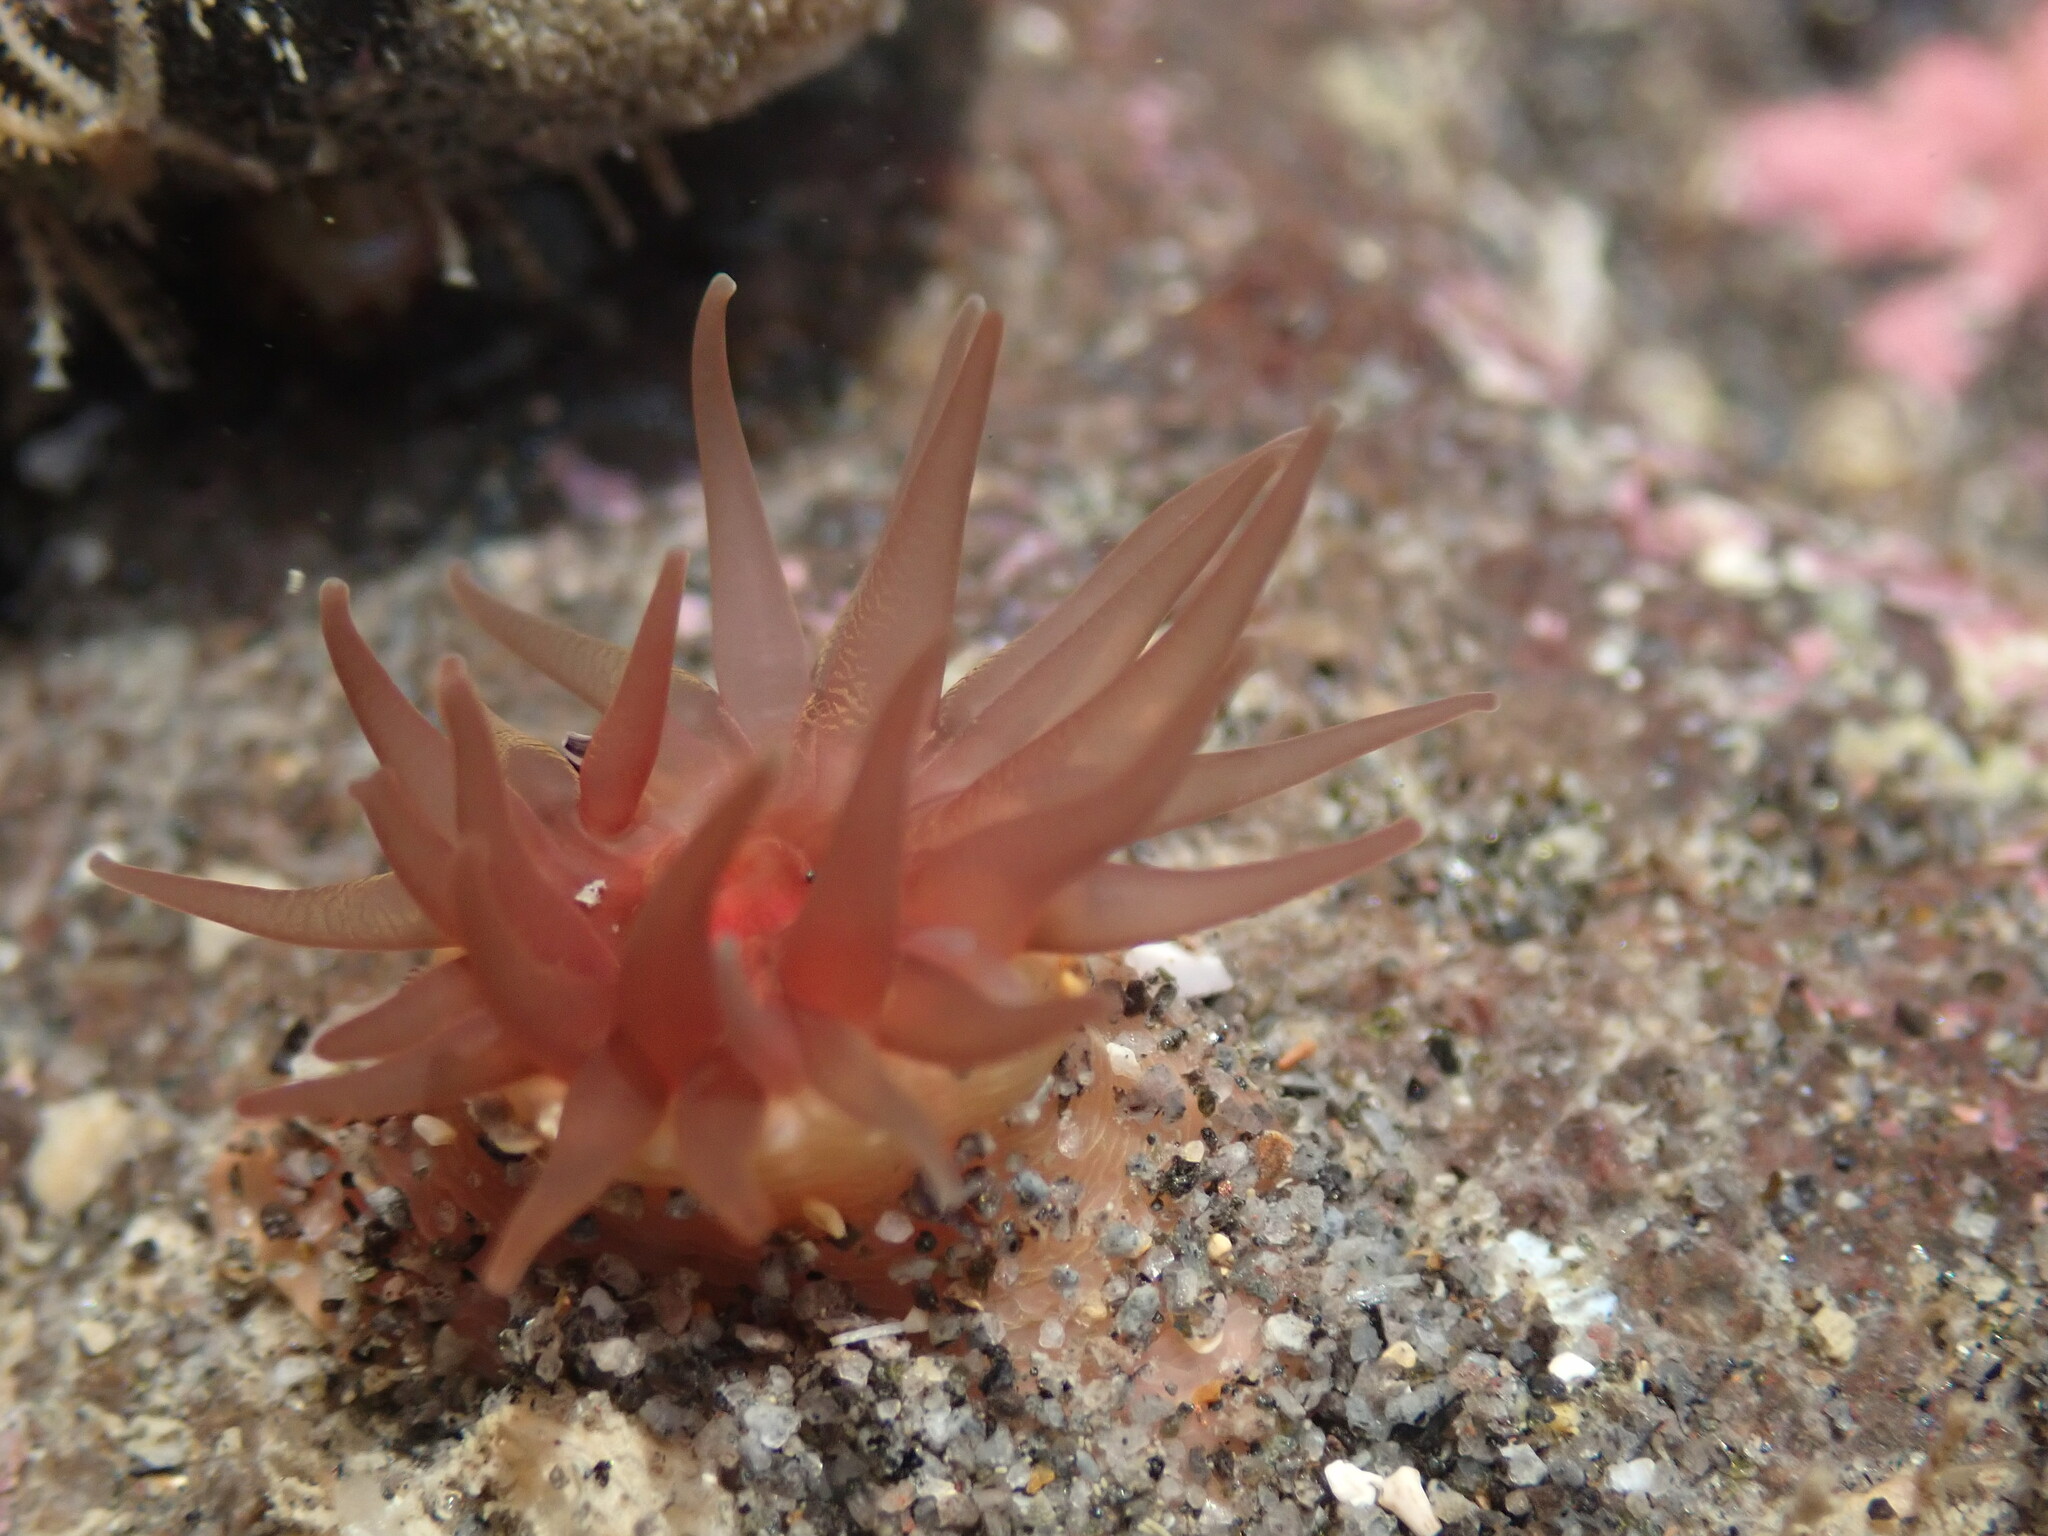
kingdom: Animalia
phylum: Cnidaria
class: Anthozoa
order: Actiniaria
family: Actiniidae
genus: Isactinia
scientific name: Isactinia olivacea
